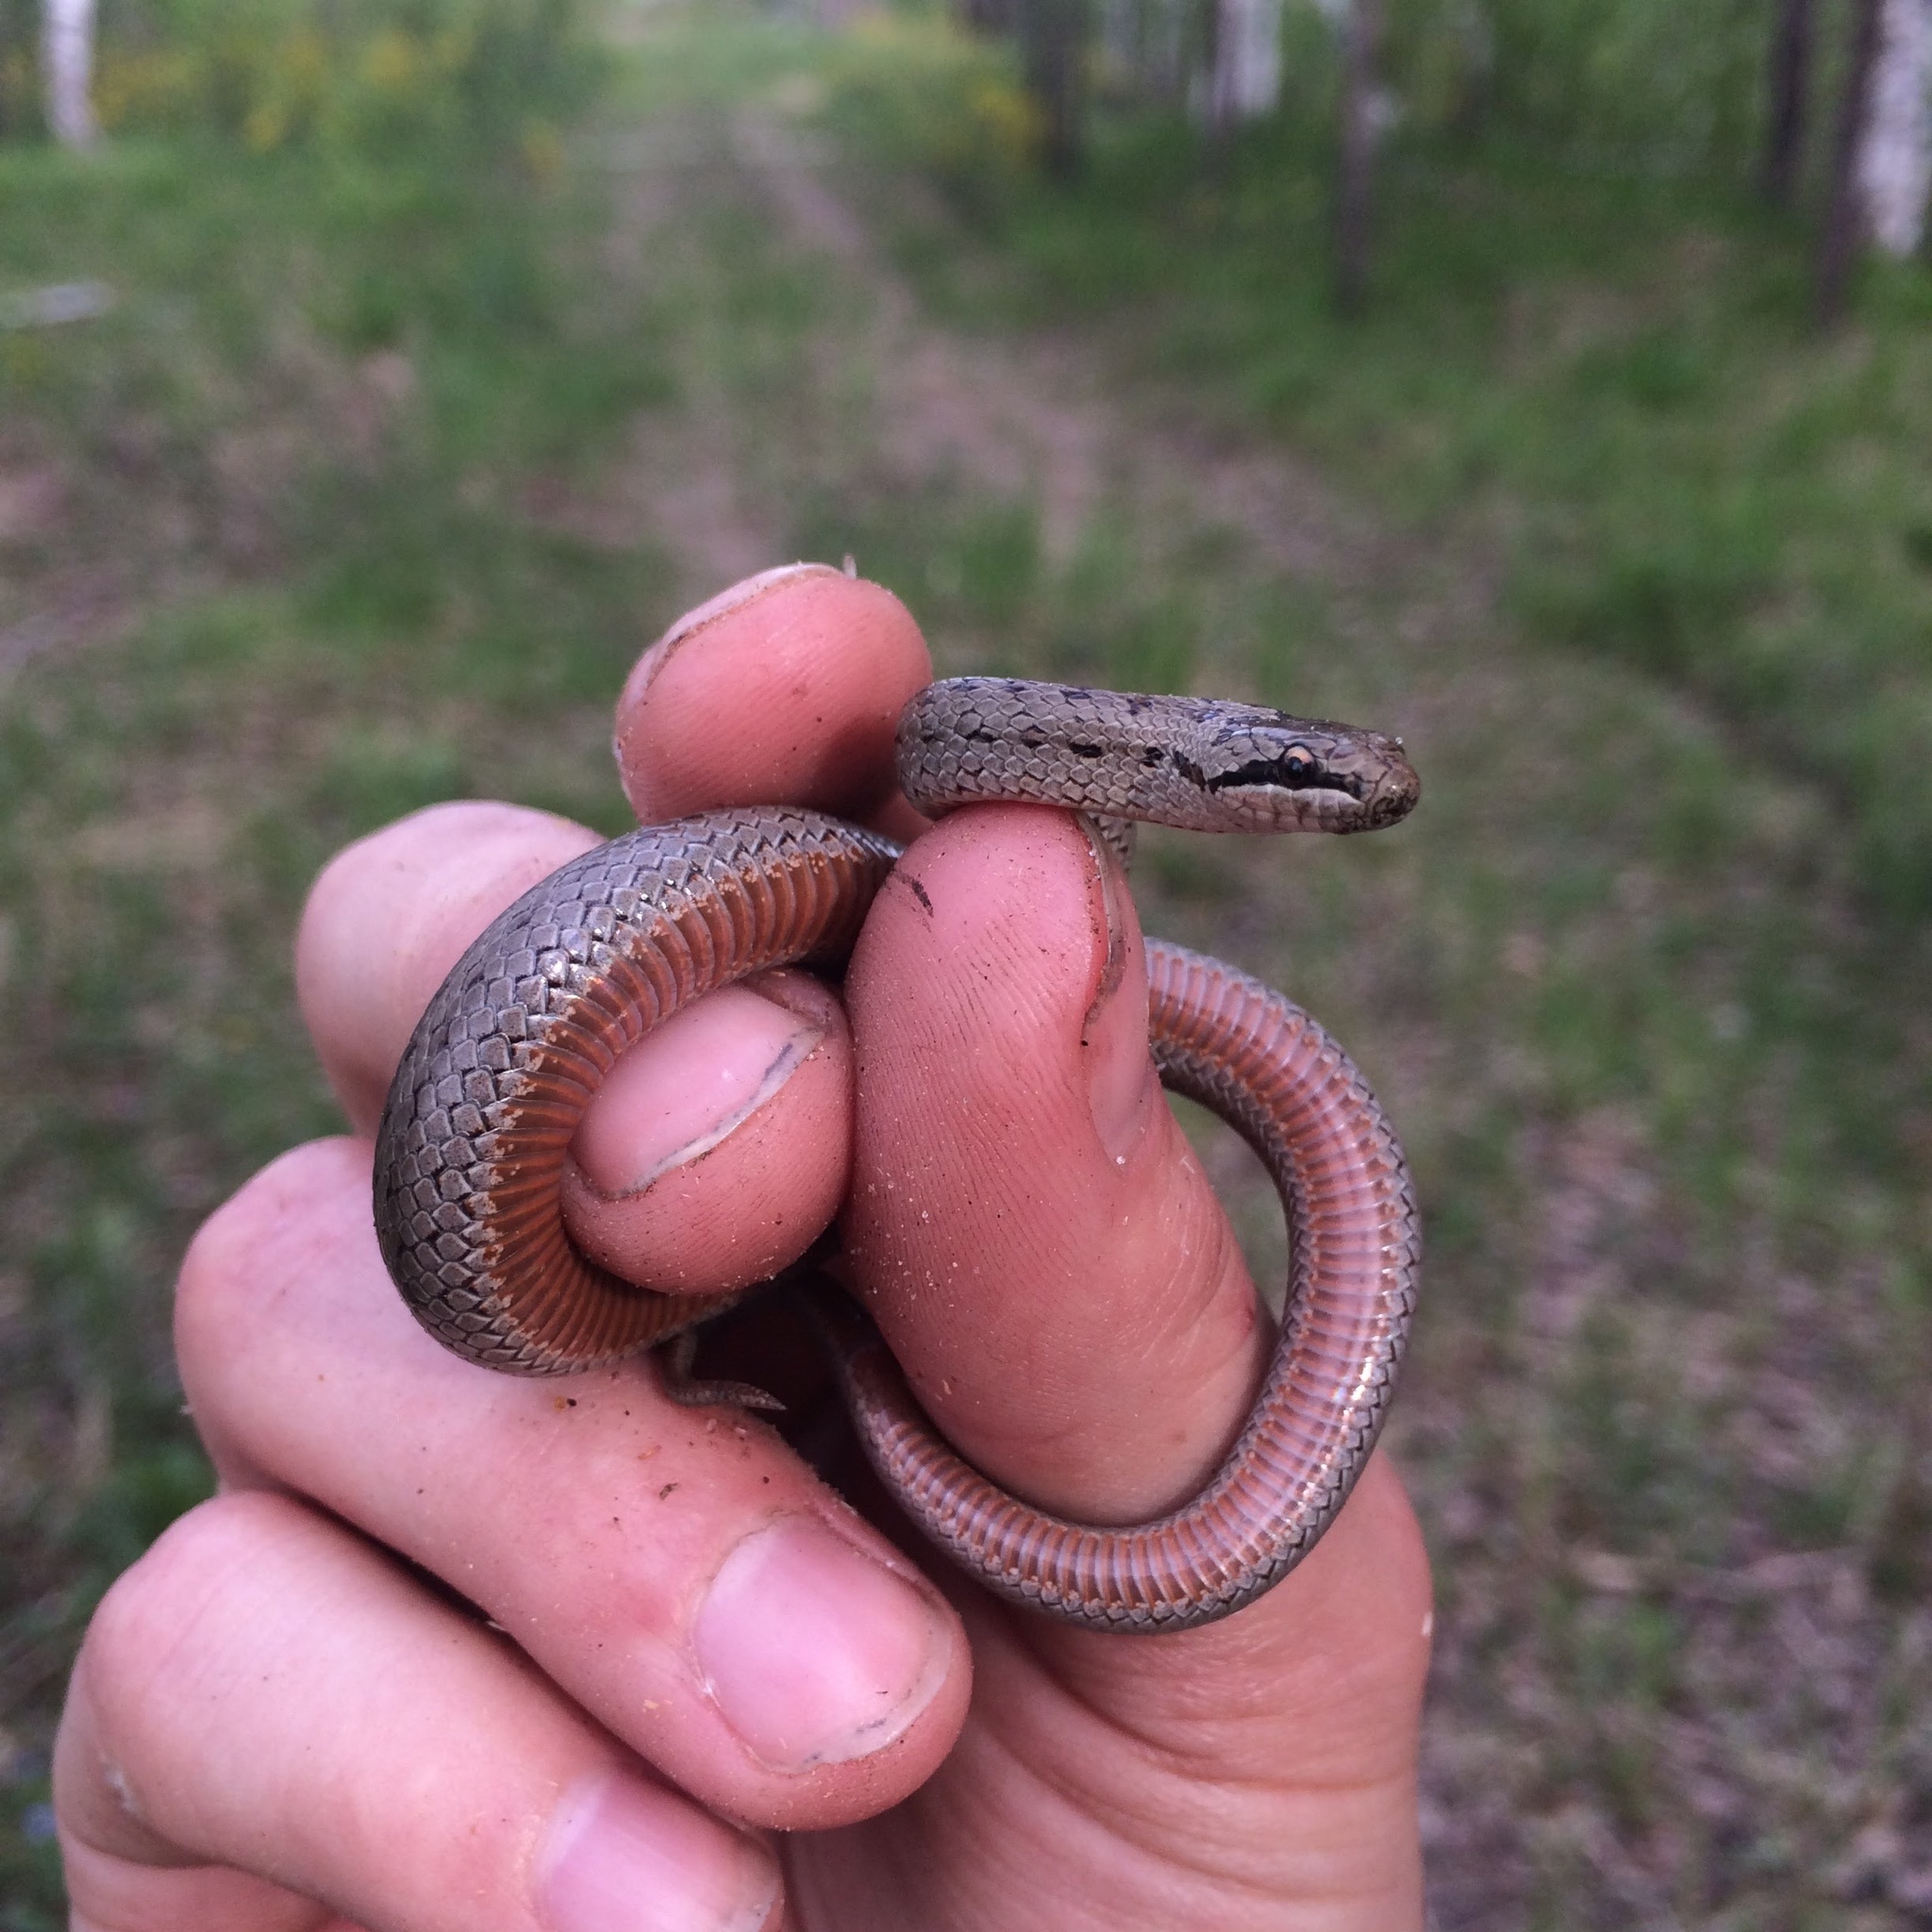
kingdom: Animalia
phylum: Chordata
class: Squamata
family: Colubridae
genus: Coronella
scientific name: Coronella austriaca
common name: Smooth snake
